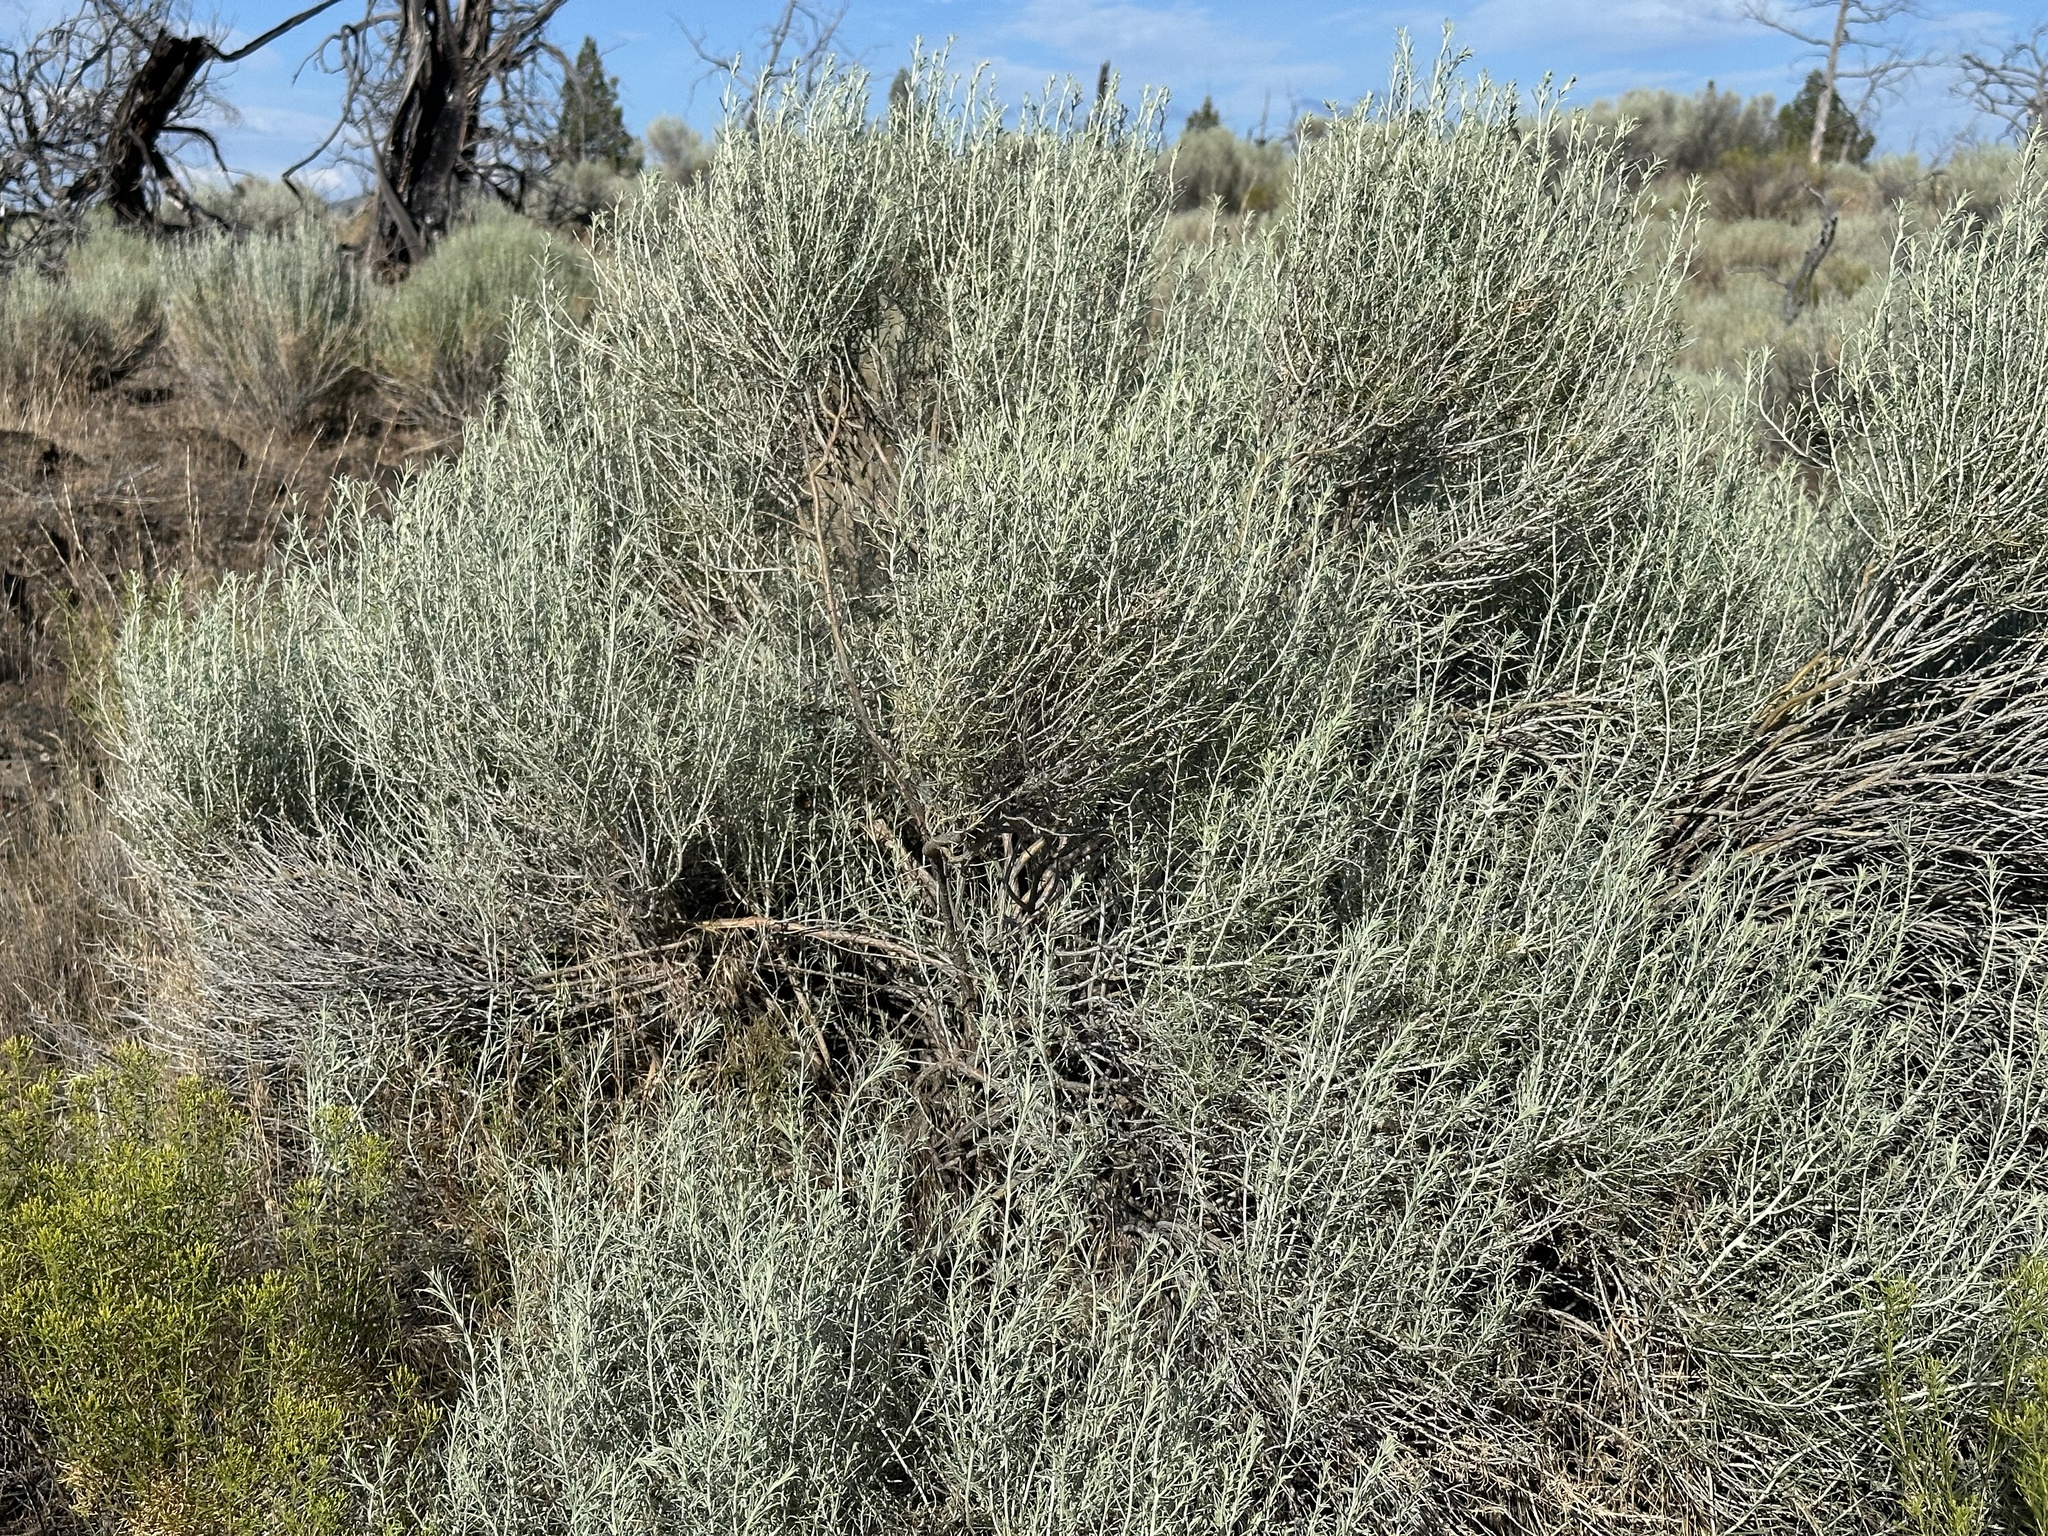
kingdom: Plantae
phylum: Tracheophyta
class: Magnoliopsida
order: Asterales
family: Asteraceae
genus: Ericameria
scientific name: Ericameria nauseosa
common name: Rubber rabbitbrush
